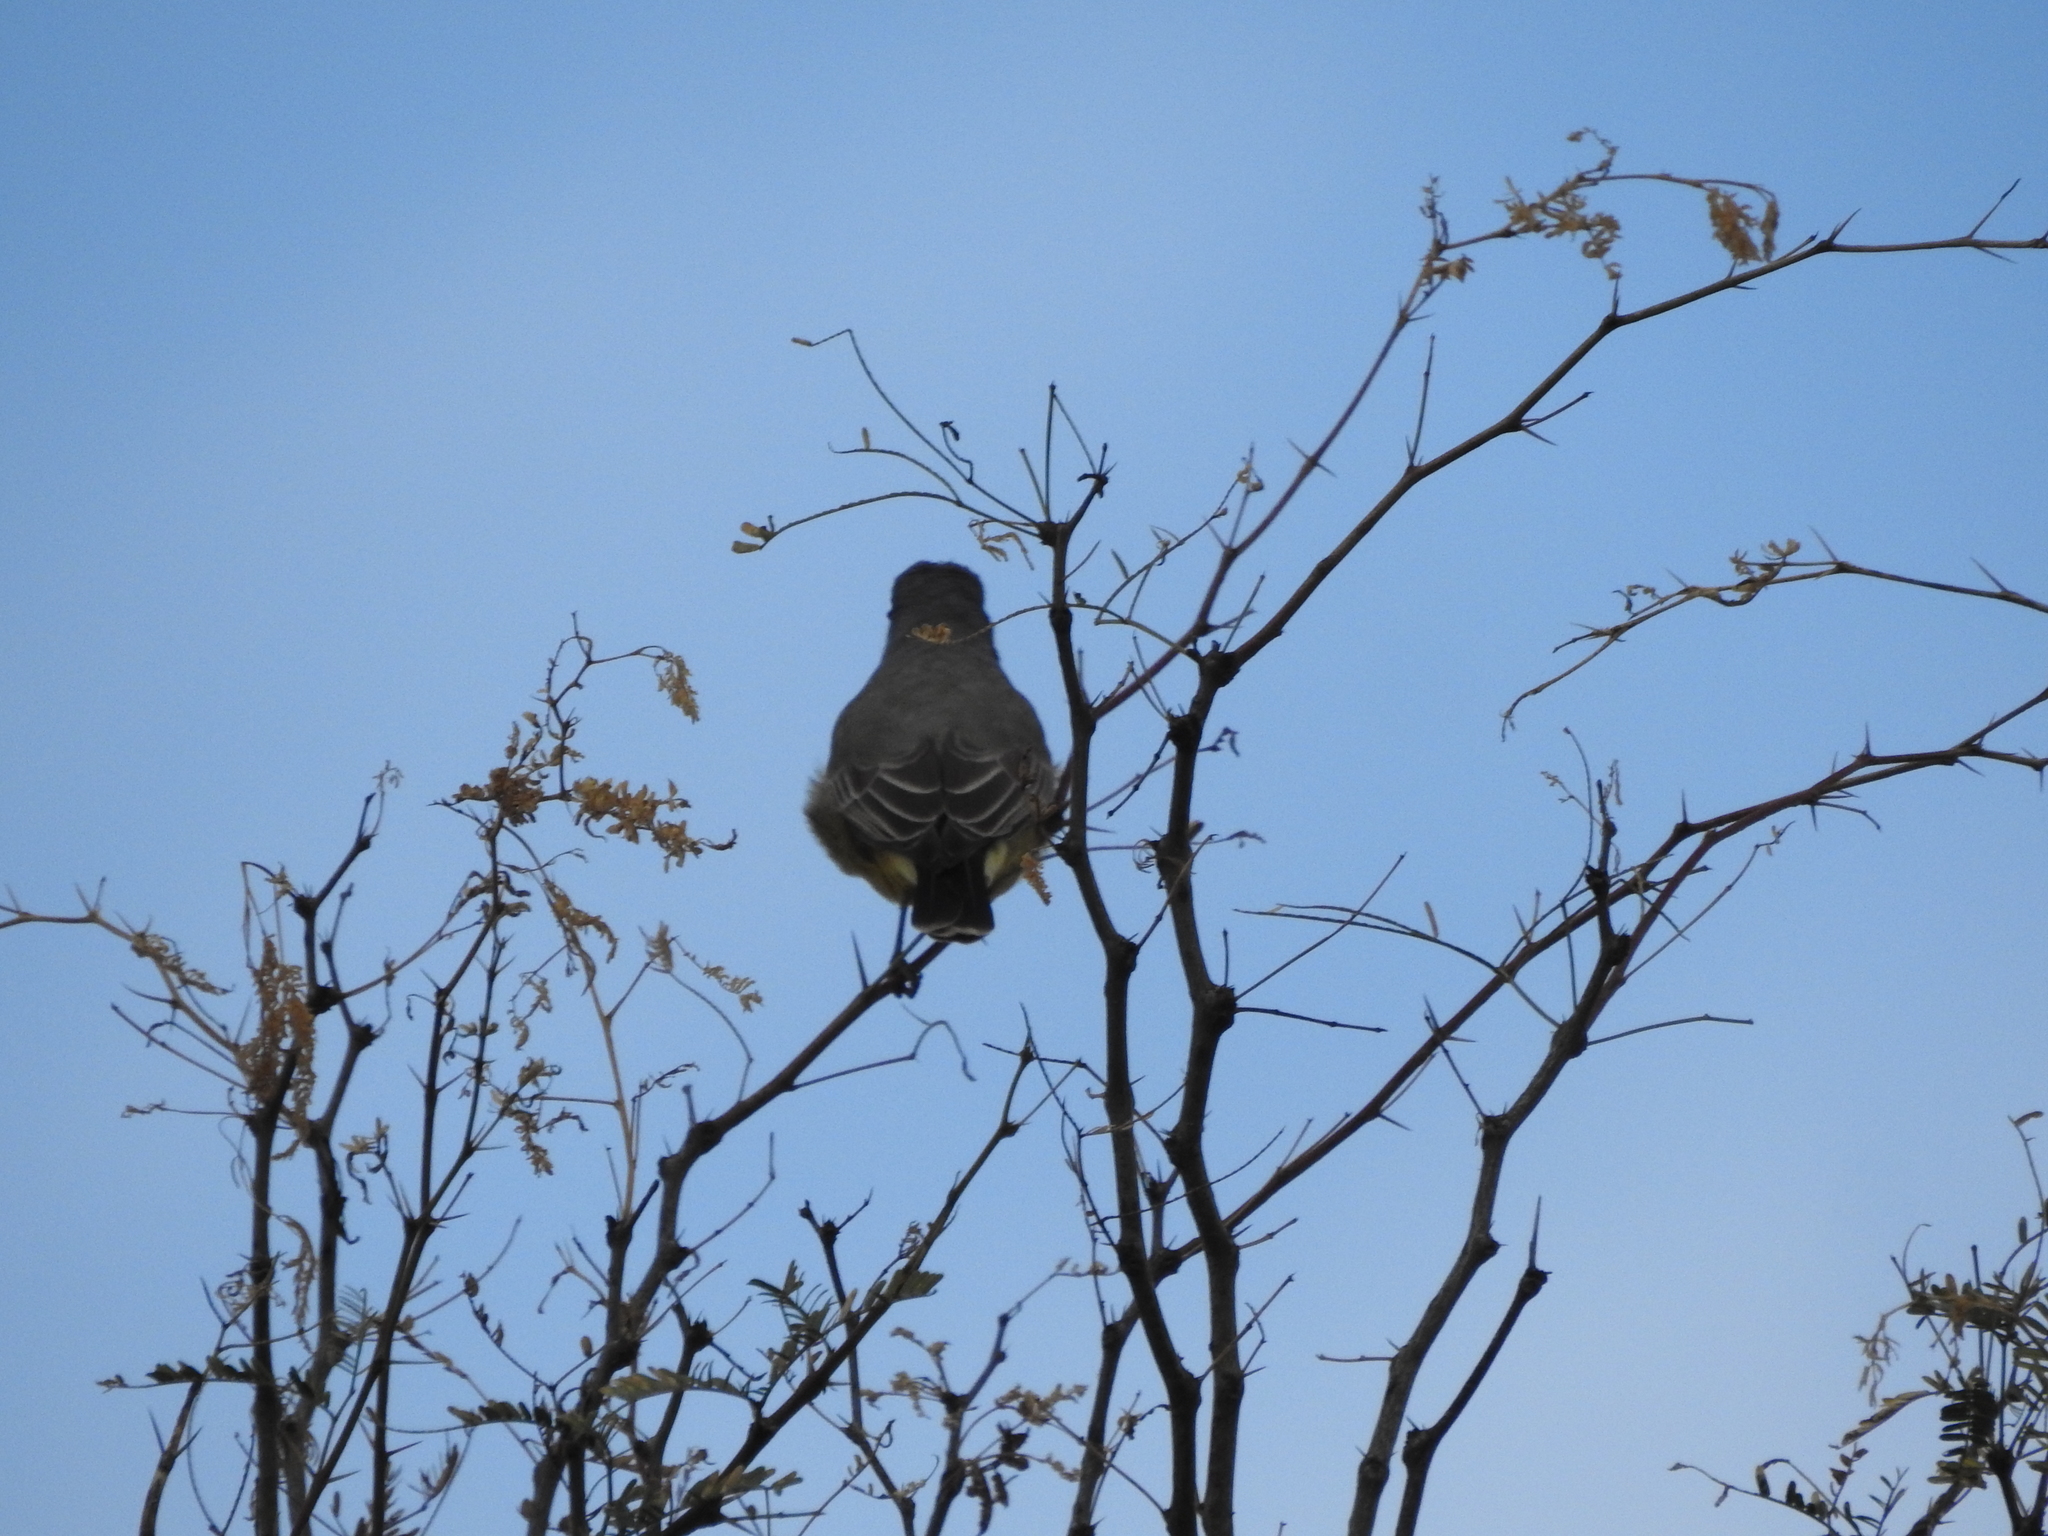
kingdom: Animalia
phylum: Chordata
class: Aves
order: Passeriformes
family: Tyrannidae
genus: Tyrannus
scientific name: Tyrannus vociferans
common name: Cassin's kingbird
